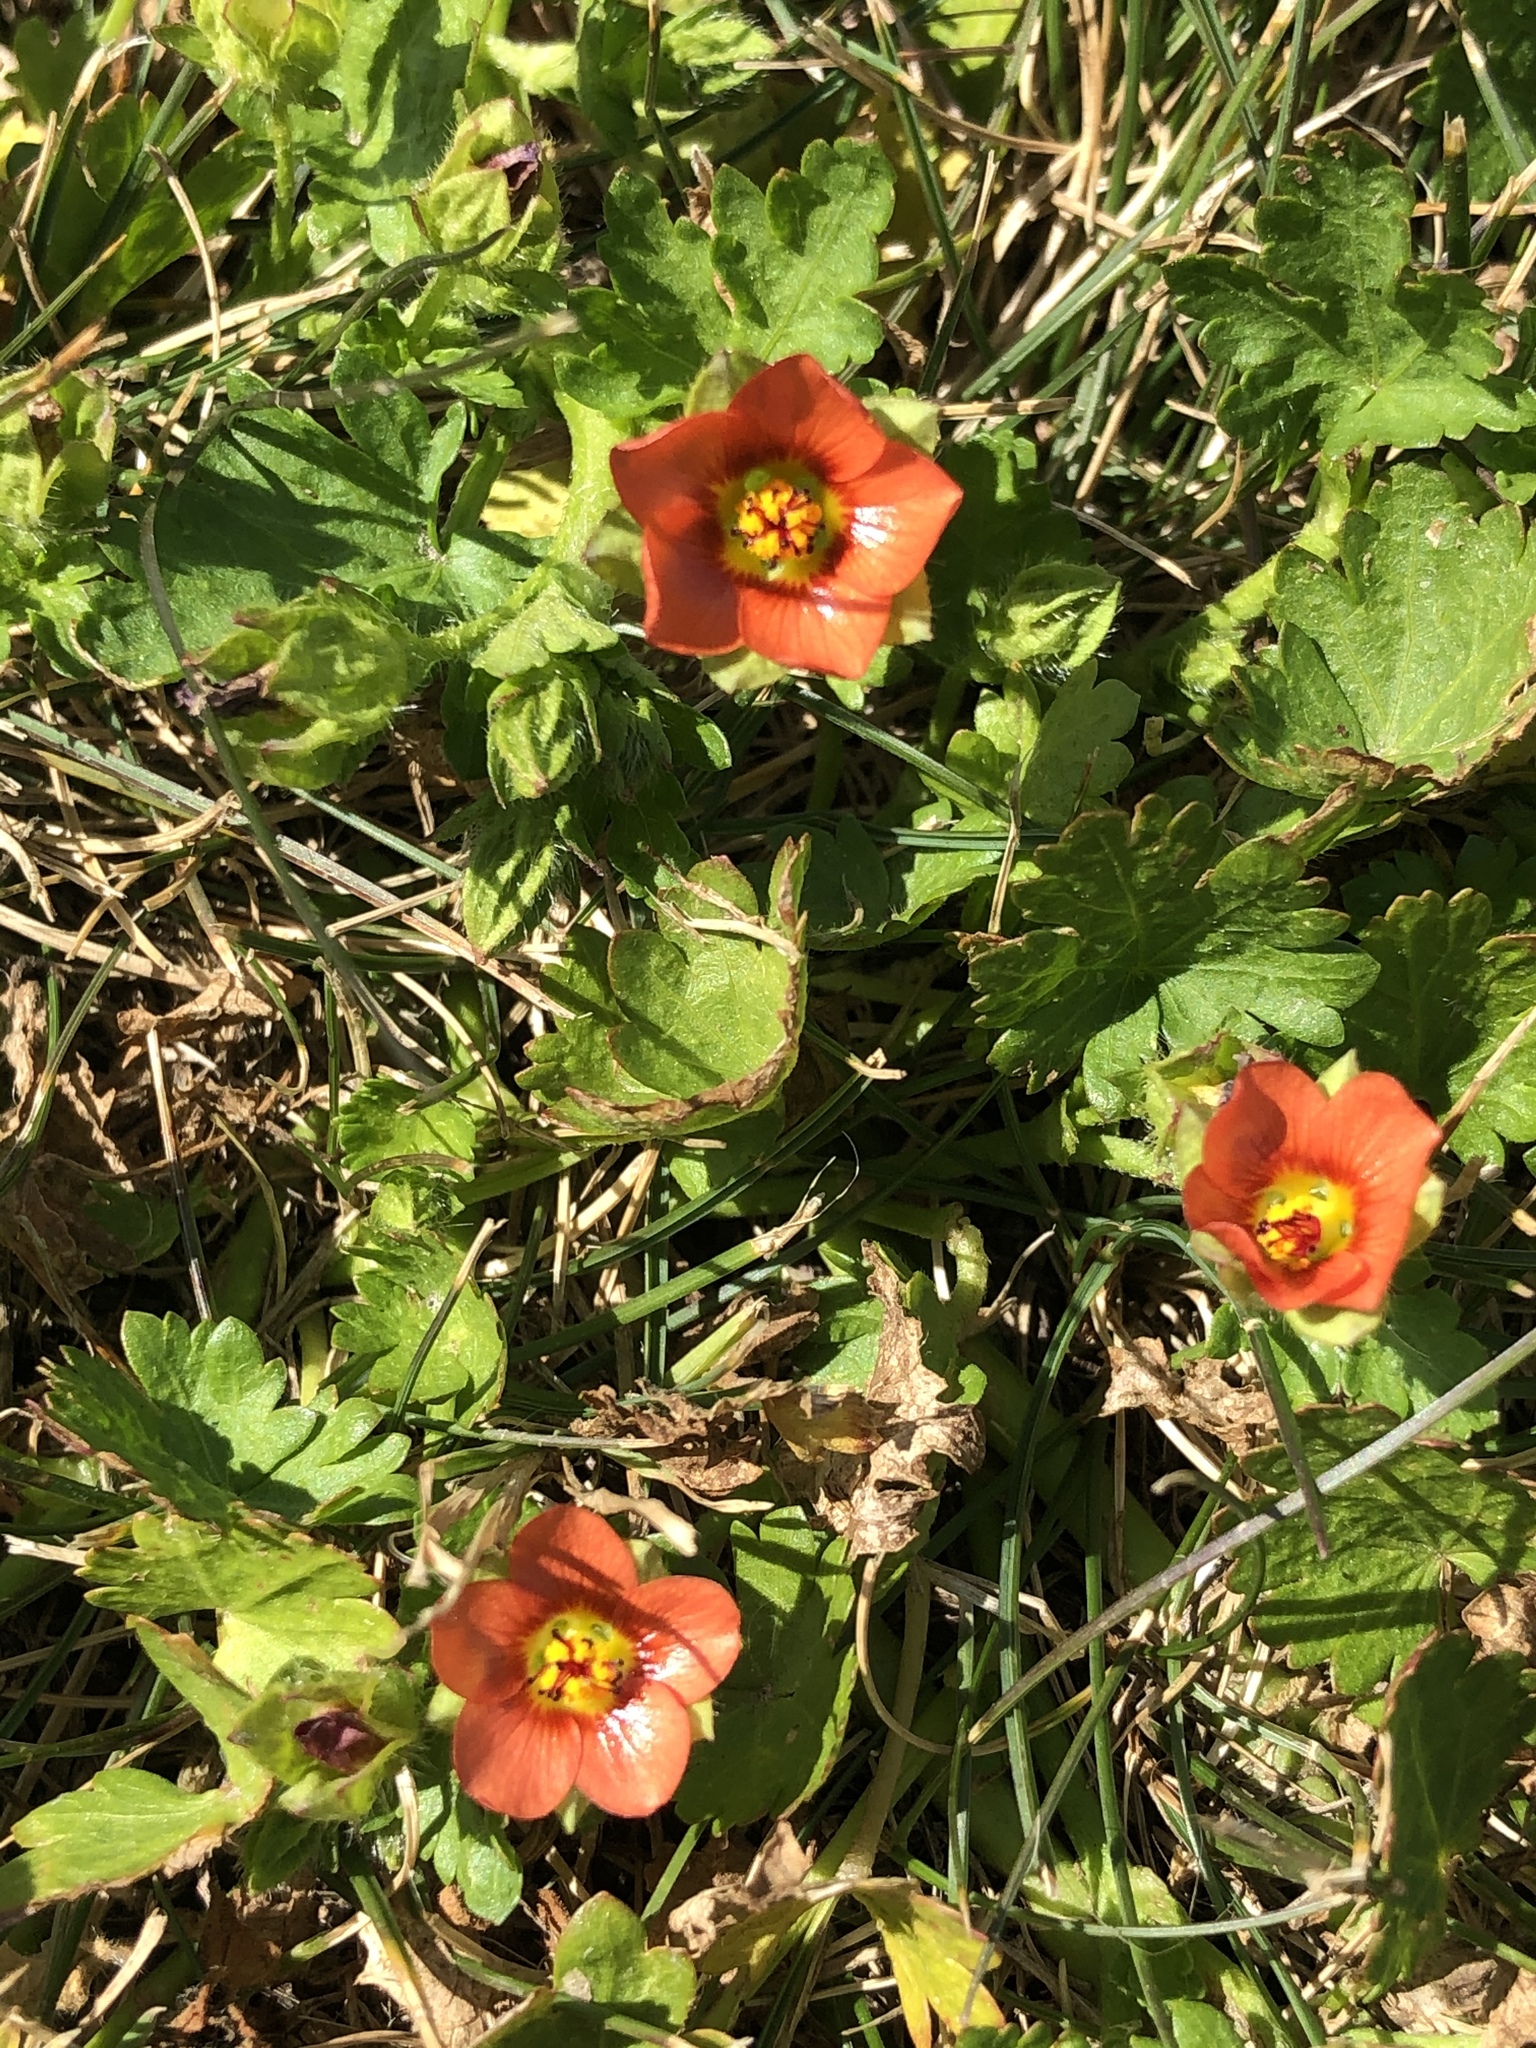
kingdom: Plantae
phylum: Tracheophyta
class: Magnoliopsida
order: Malvales
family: Malvaceae
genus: Modiola
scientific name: Modiola caroliniana
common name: Carolina bristlemallow
